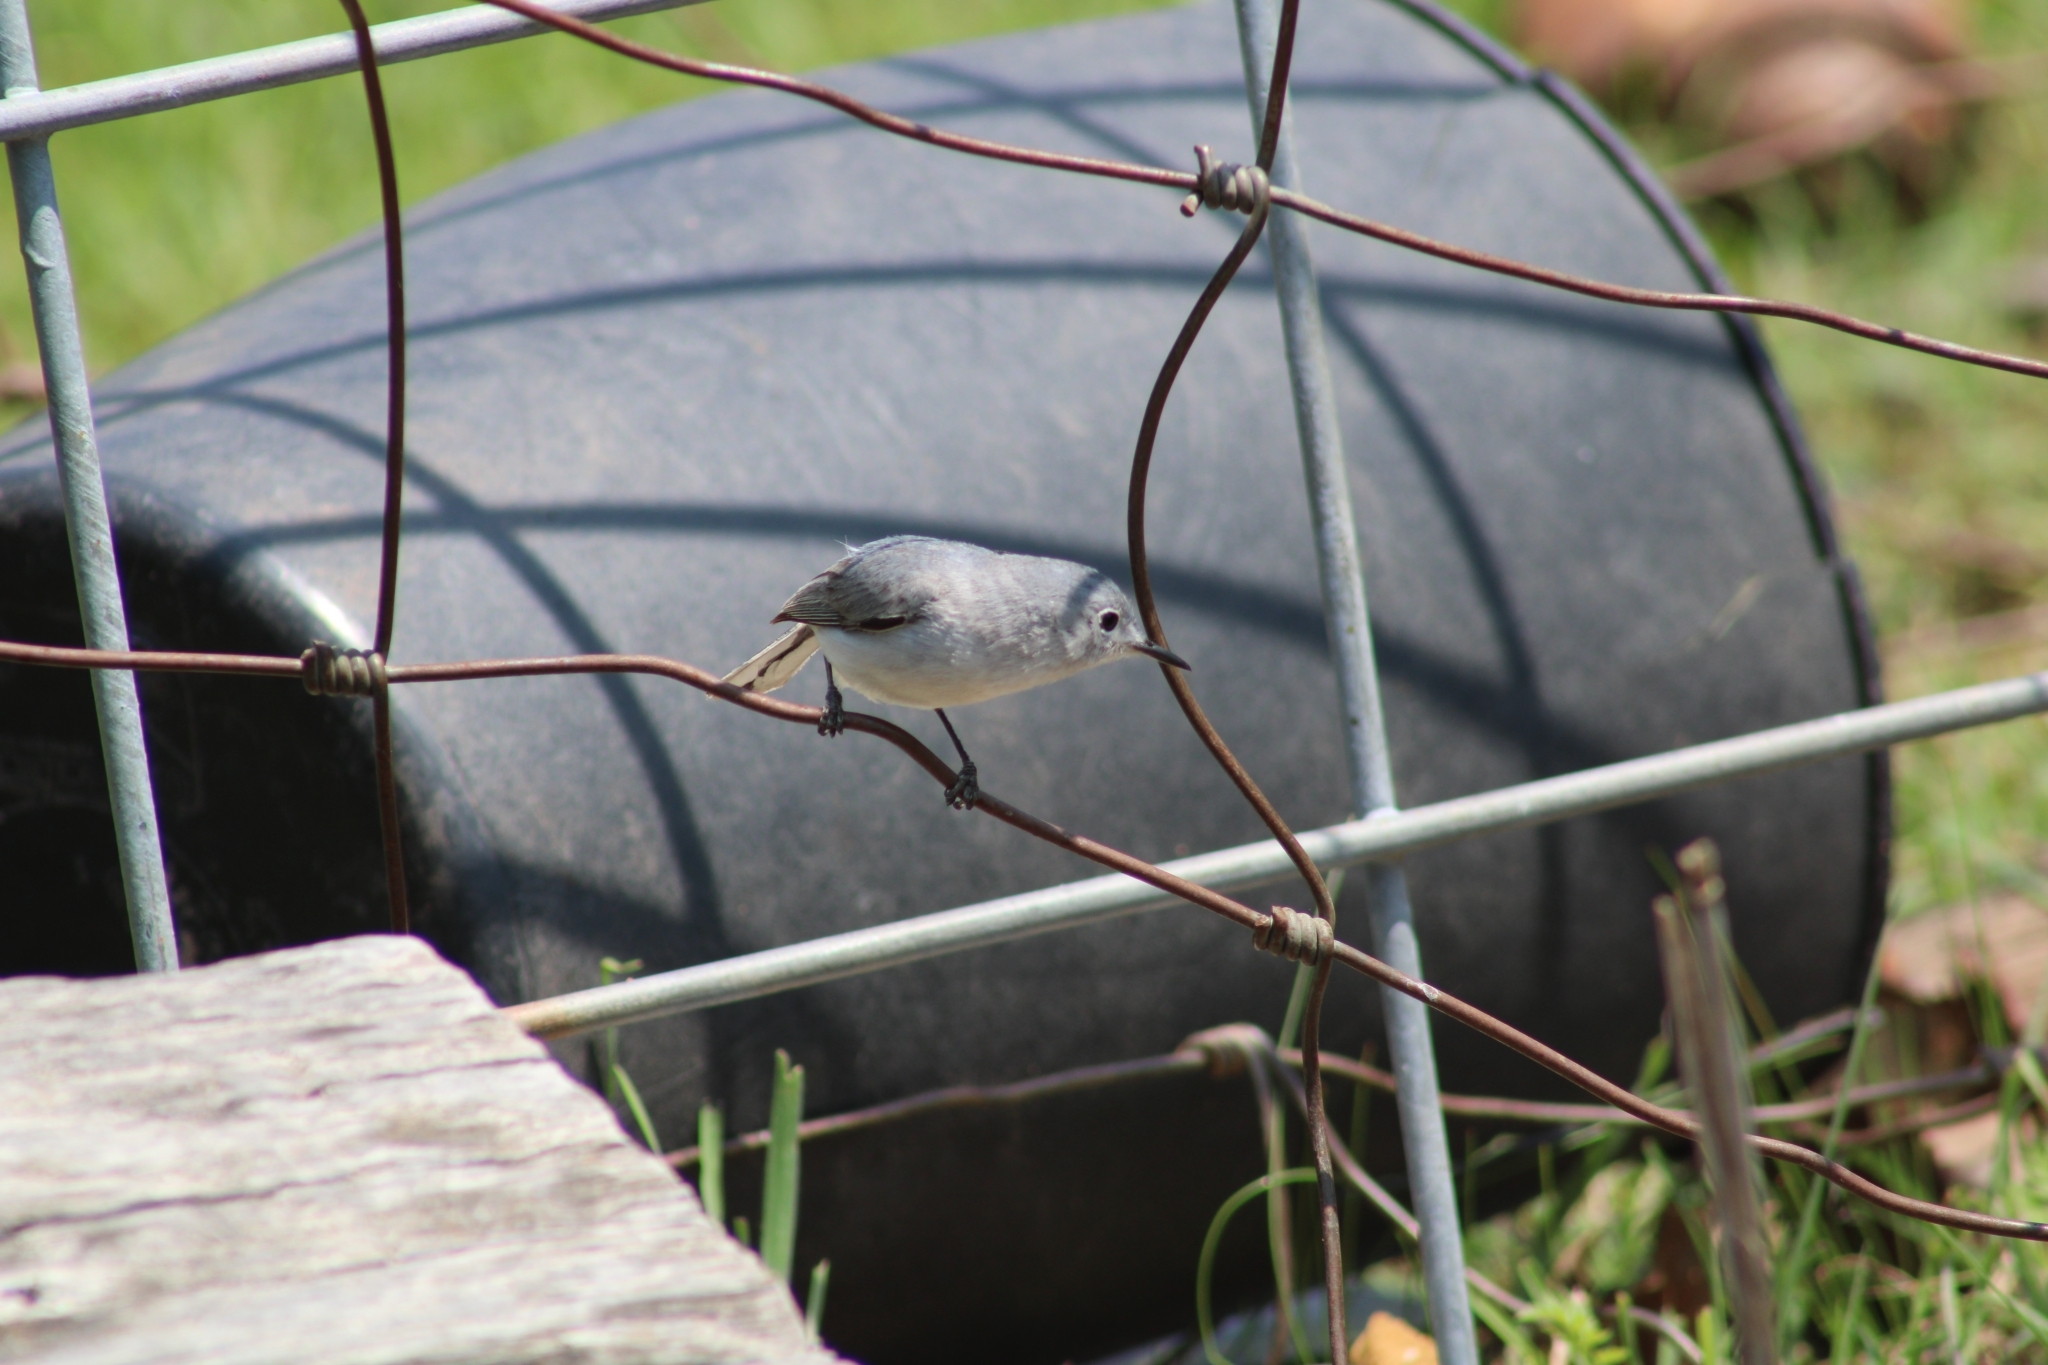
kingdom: Animalia
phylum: Chordata
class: Aves
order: Passeriformes
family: Polioptilidae
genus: Polioptila
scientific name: Polioptila caerulea
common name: Blue-gray gnatcatcher
